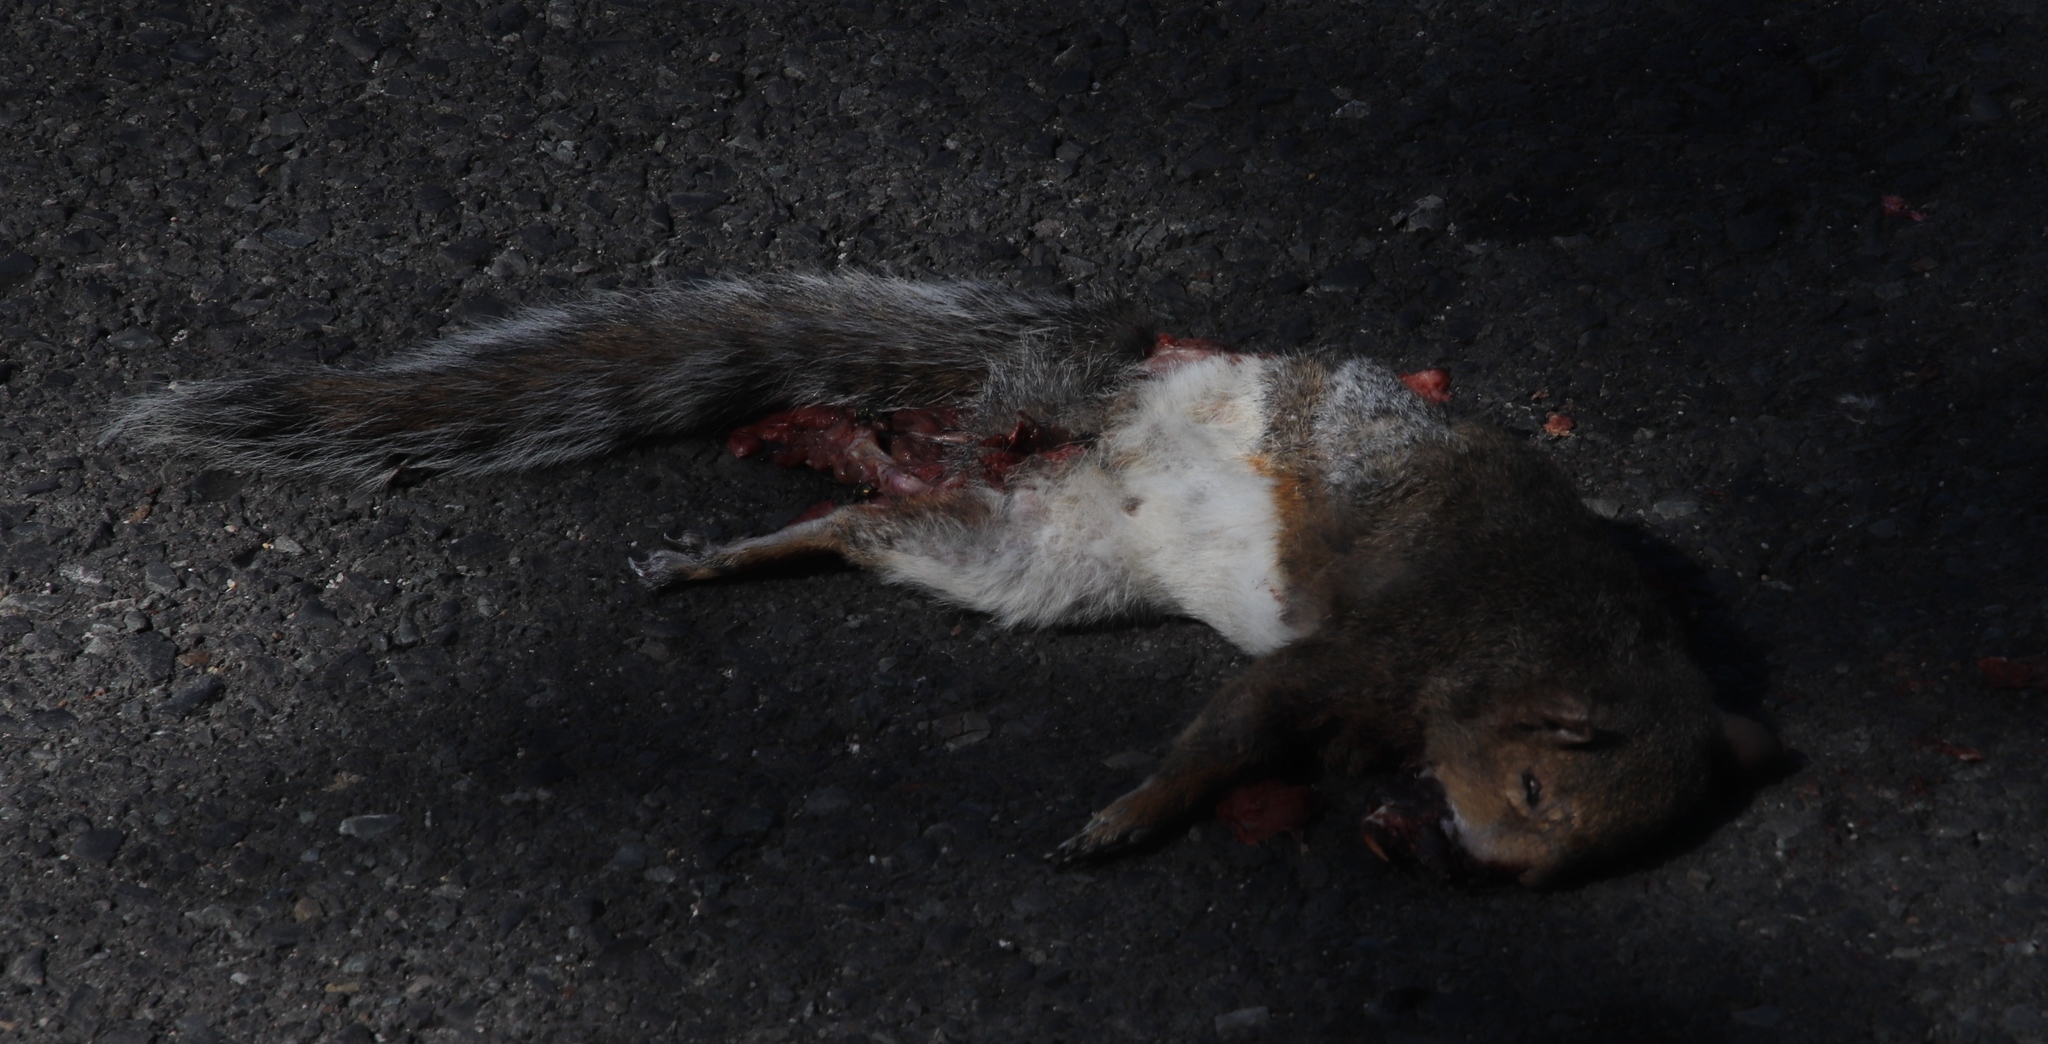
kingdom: Animalia
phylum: Chordata
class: Mammalia
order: Rodentia
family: Sciuridae
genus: Sciurus
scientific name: Sciurus carolinensis
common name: Eastern gray squirrel
